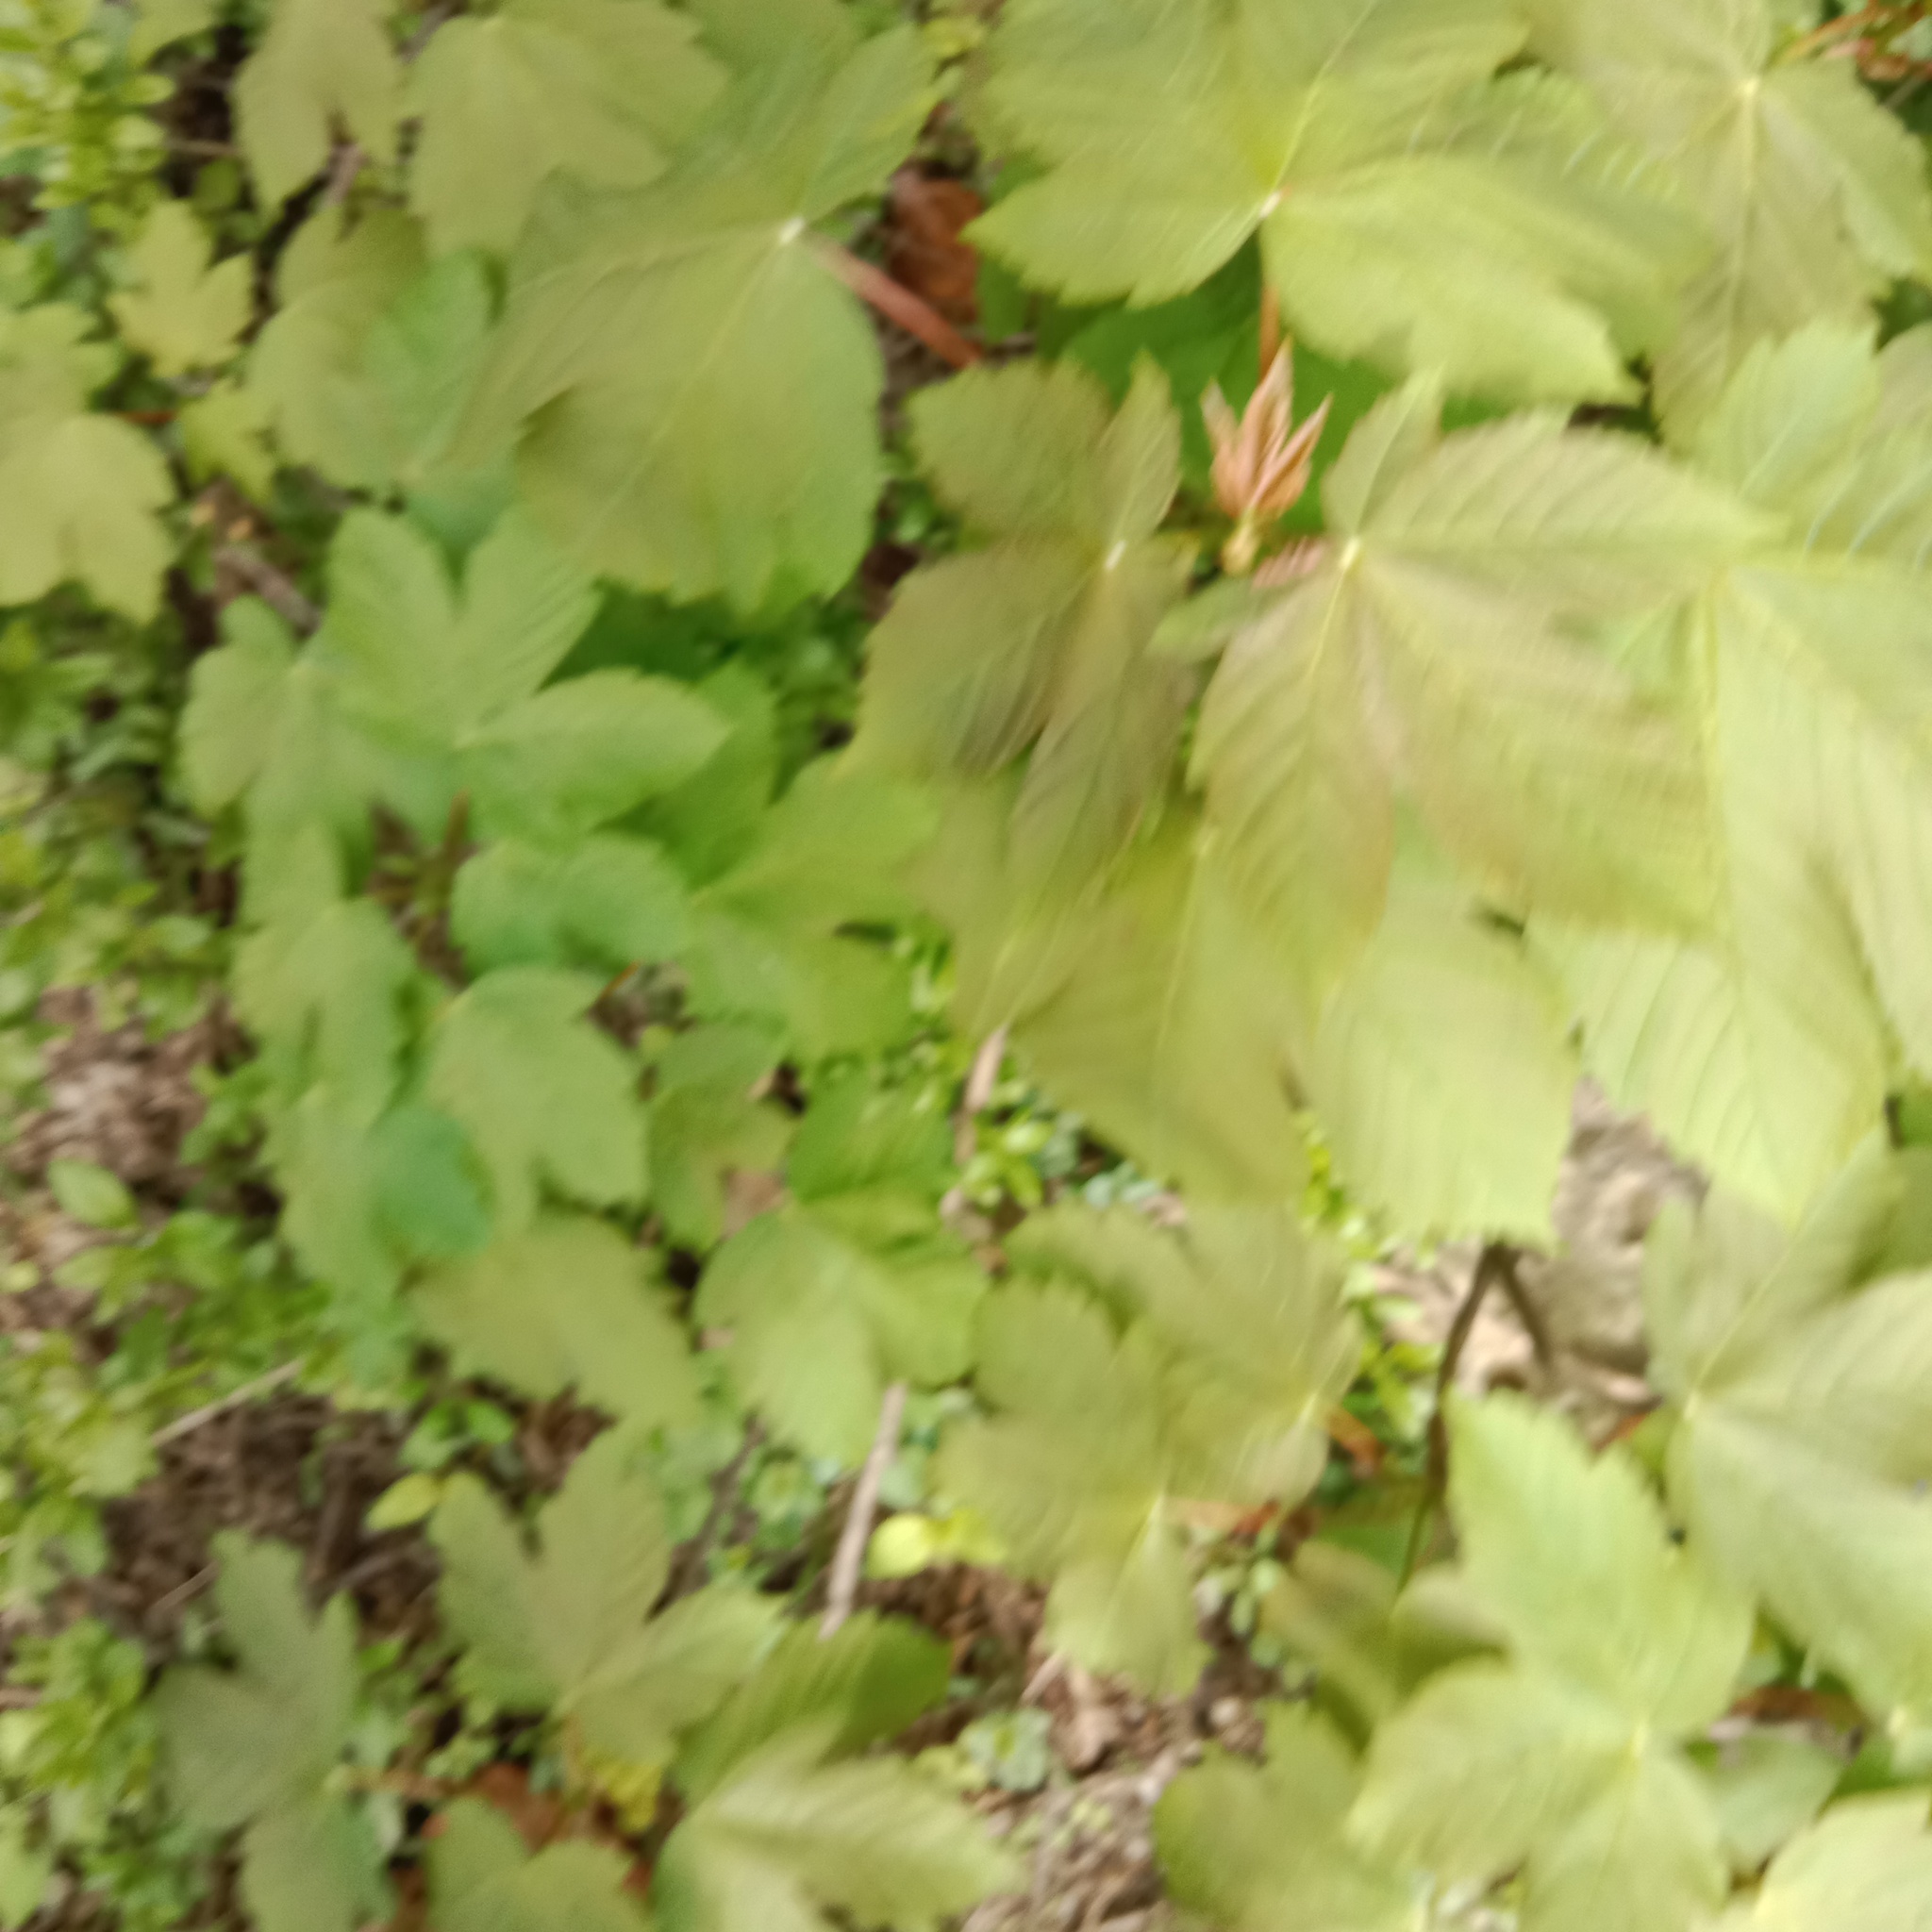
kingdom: Plantae
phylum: Tracheophyta
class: Magnoliopsida
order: Sapindales
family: Sapindaceae
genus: Acer
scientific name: Acer pseudoplatanus
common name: Sycamore
